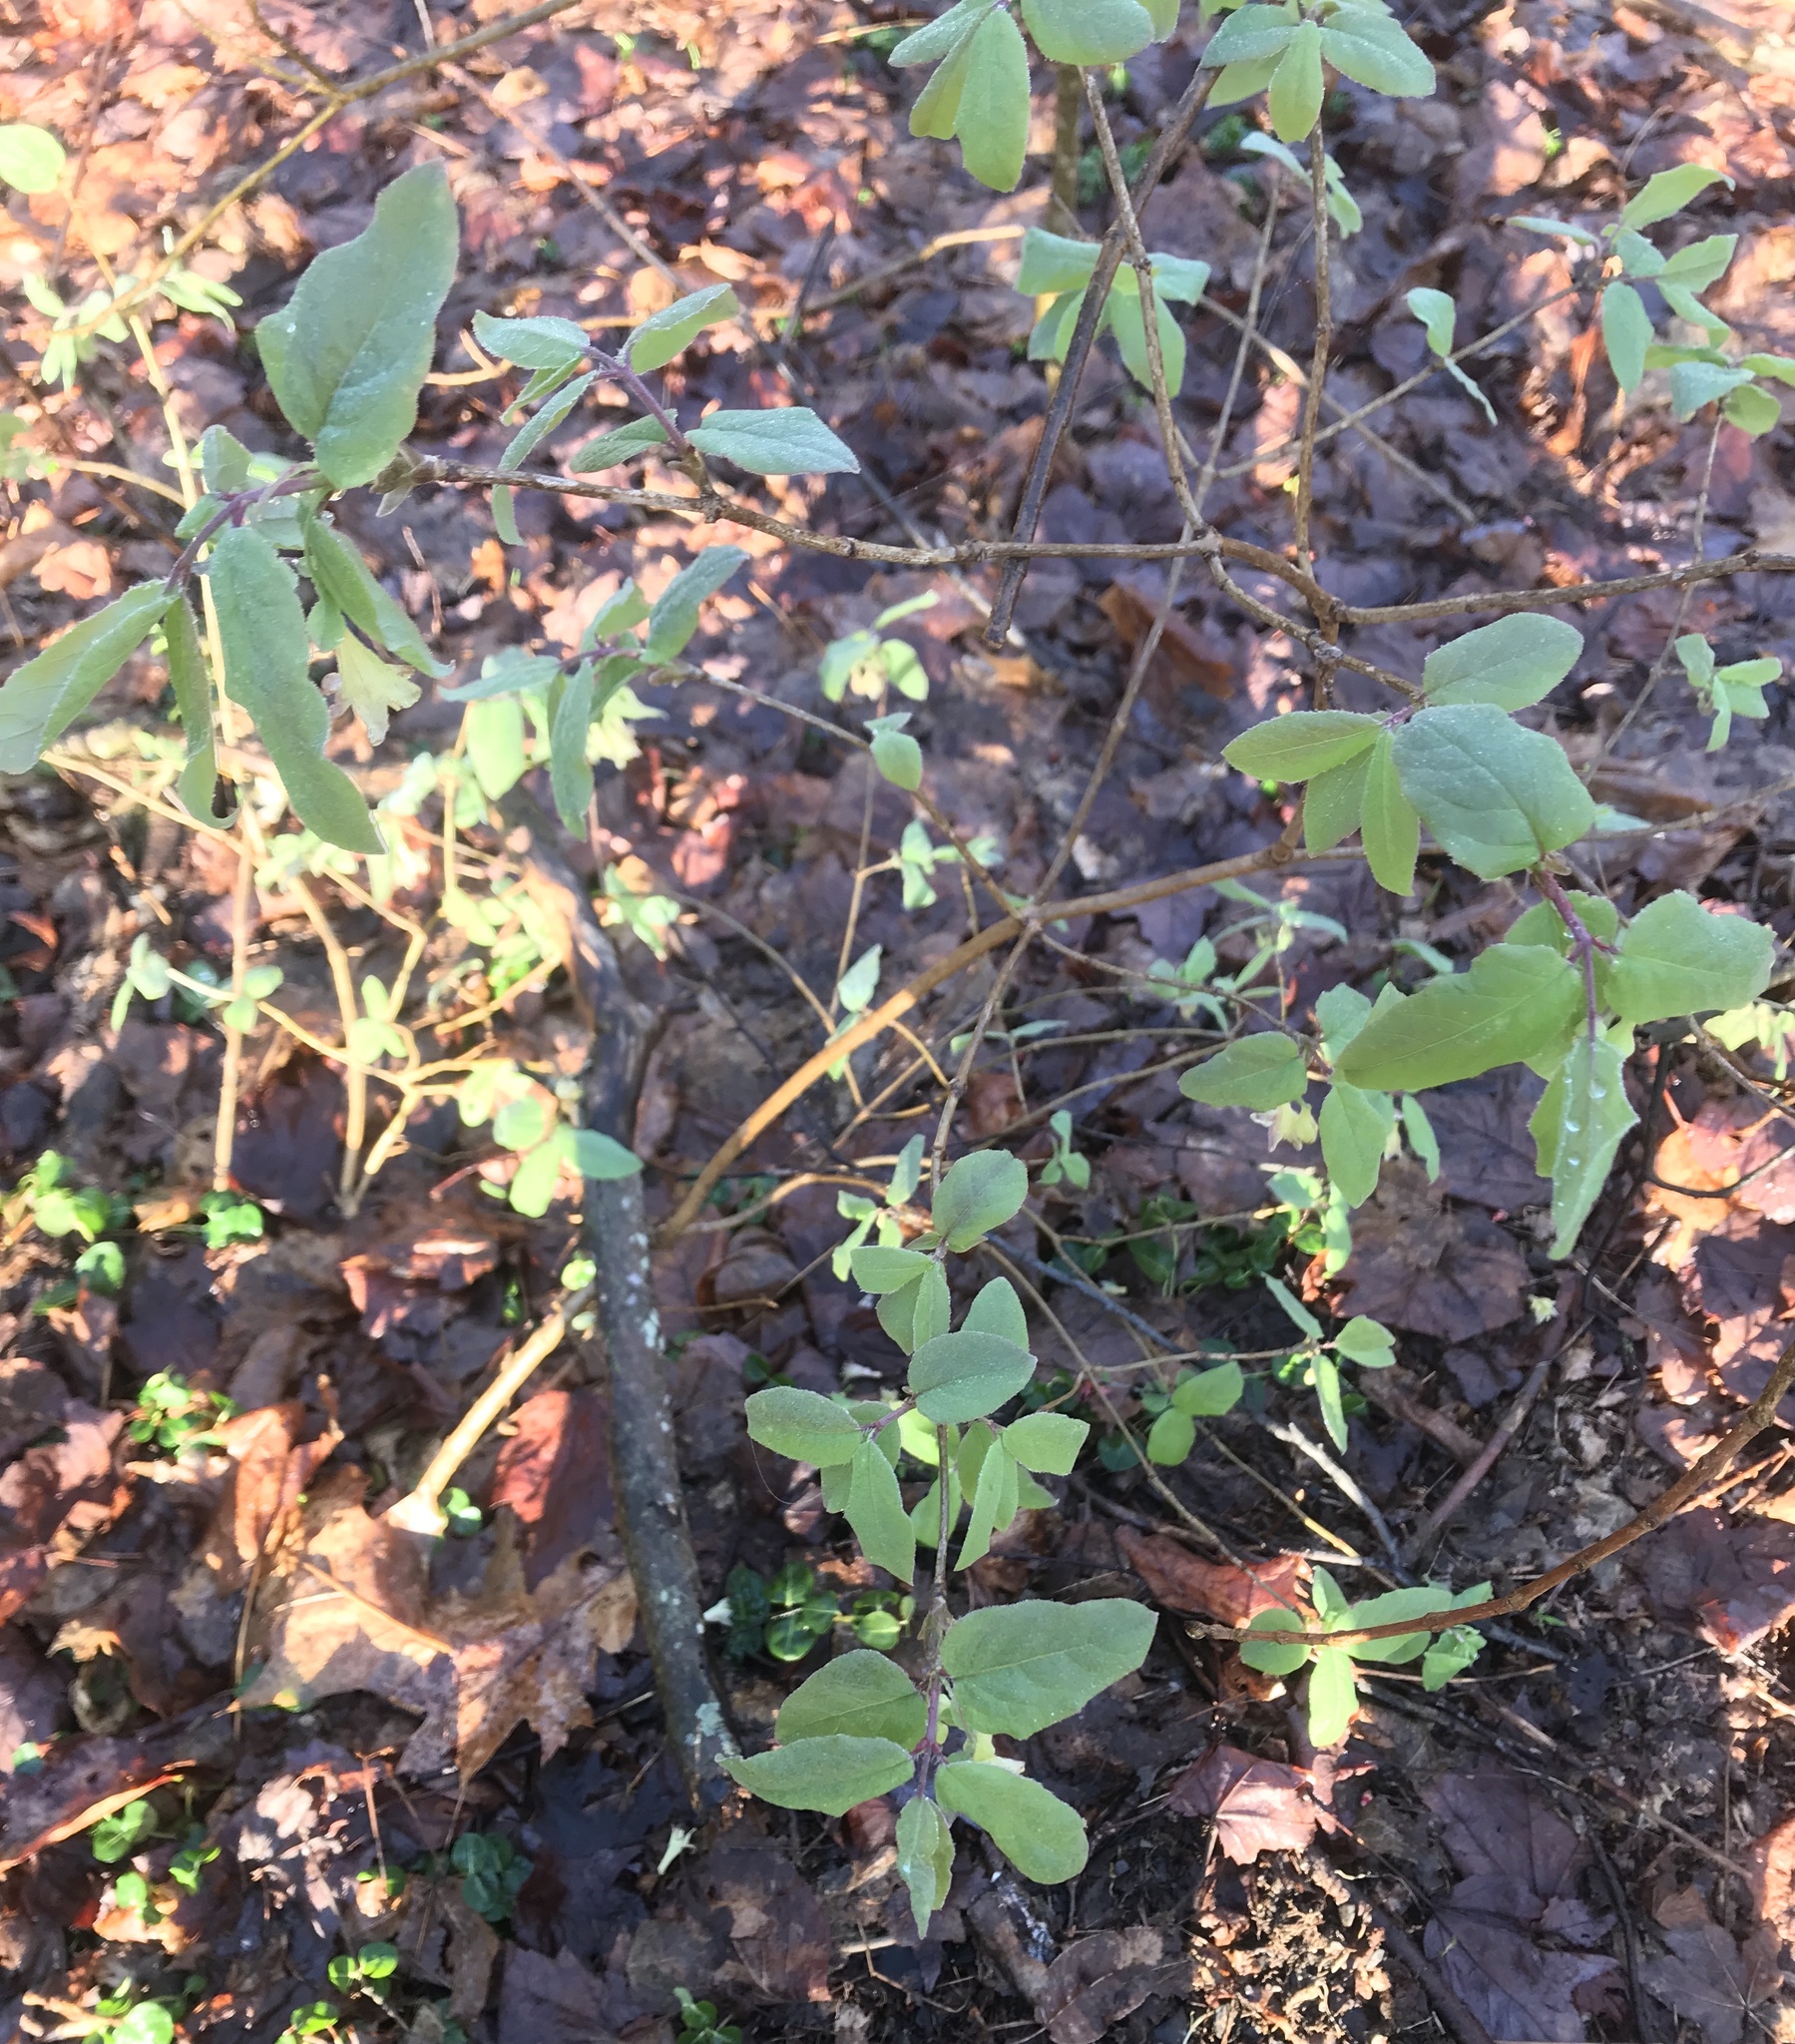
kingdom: Plantae
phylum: Tracheophyta
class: Magnoliopsida
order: Dipsacales
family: Caprifoliaceae
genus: Lonicera
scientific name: Lonicera canadensis
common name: American fly-honeysuckle
